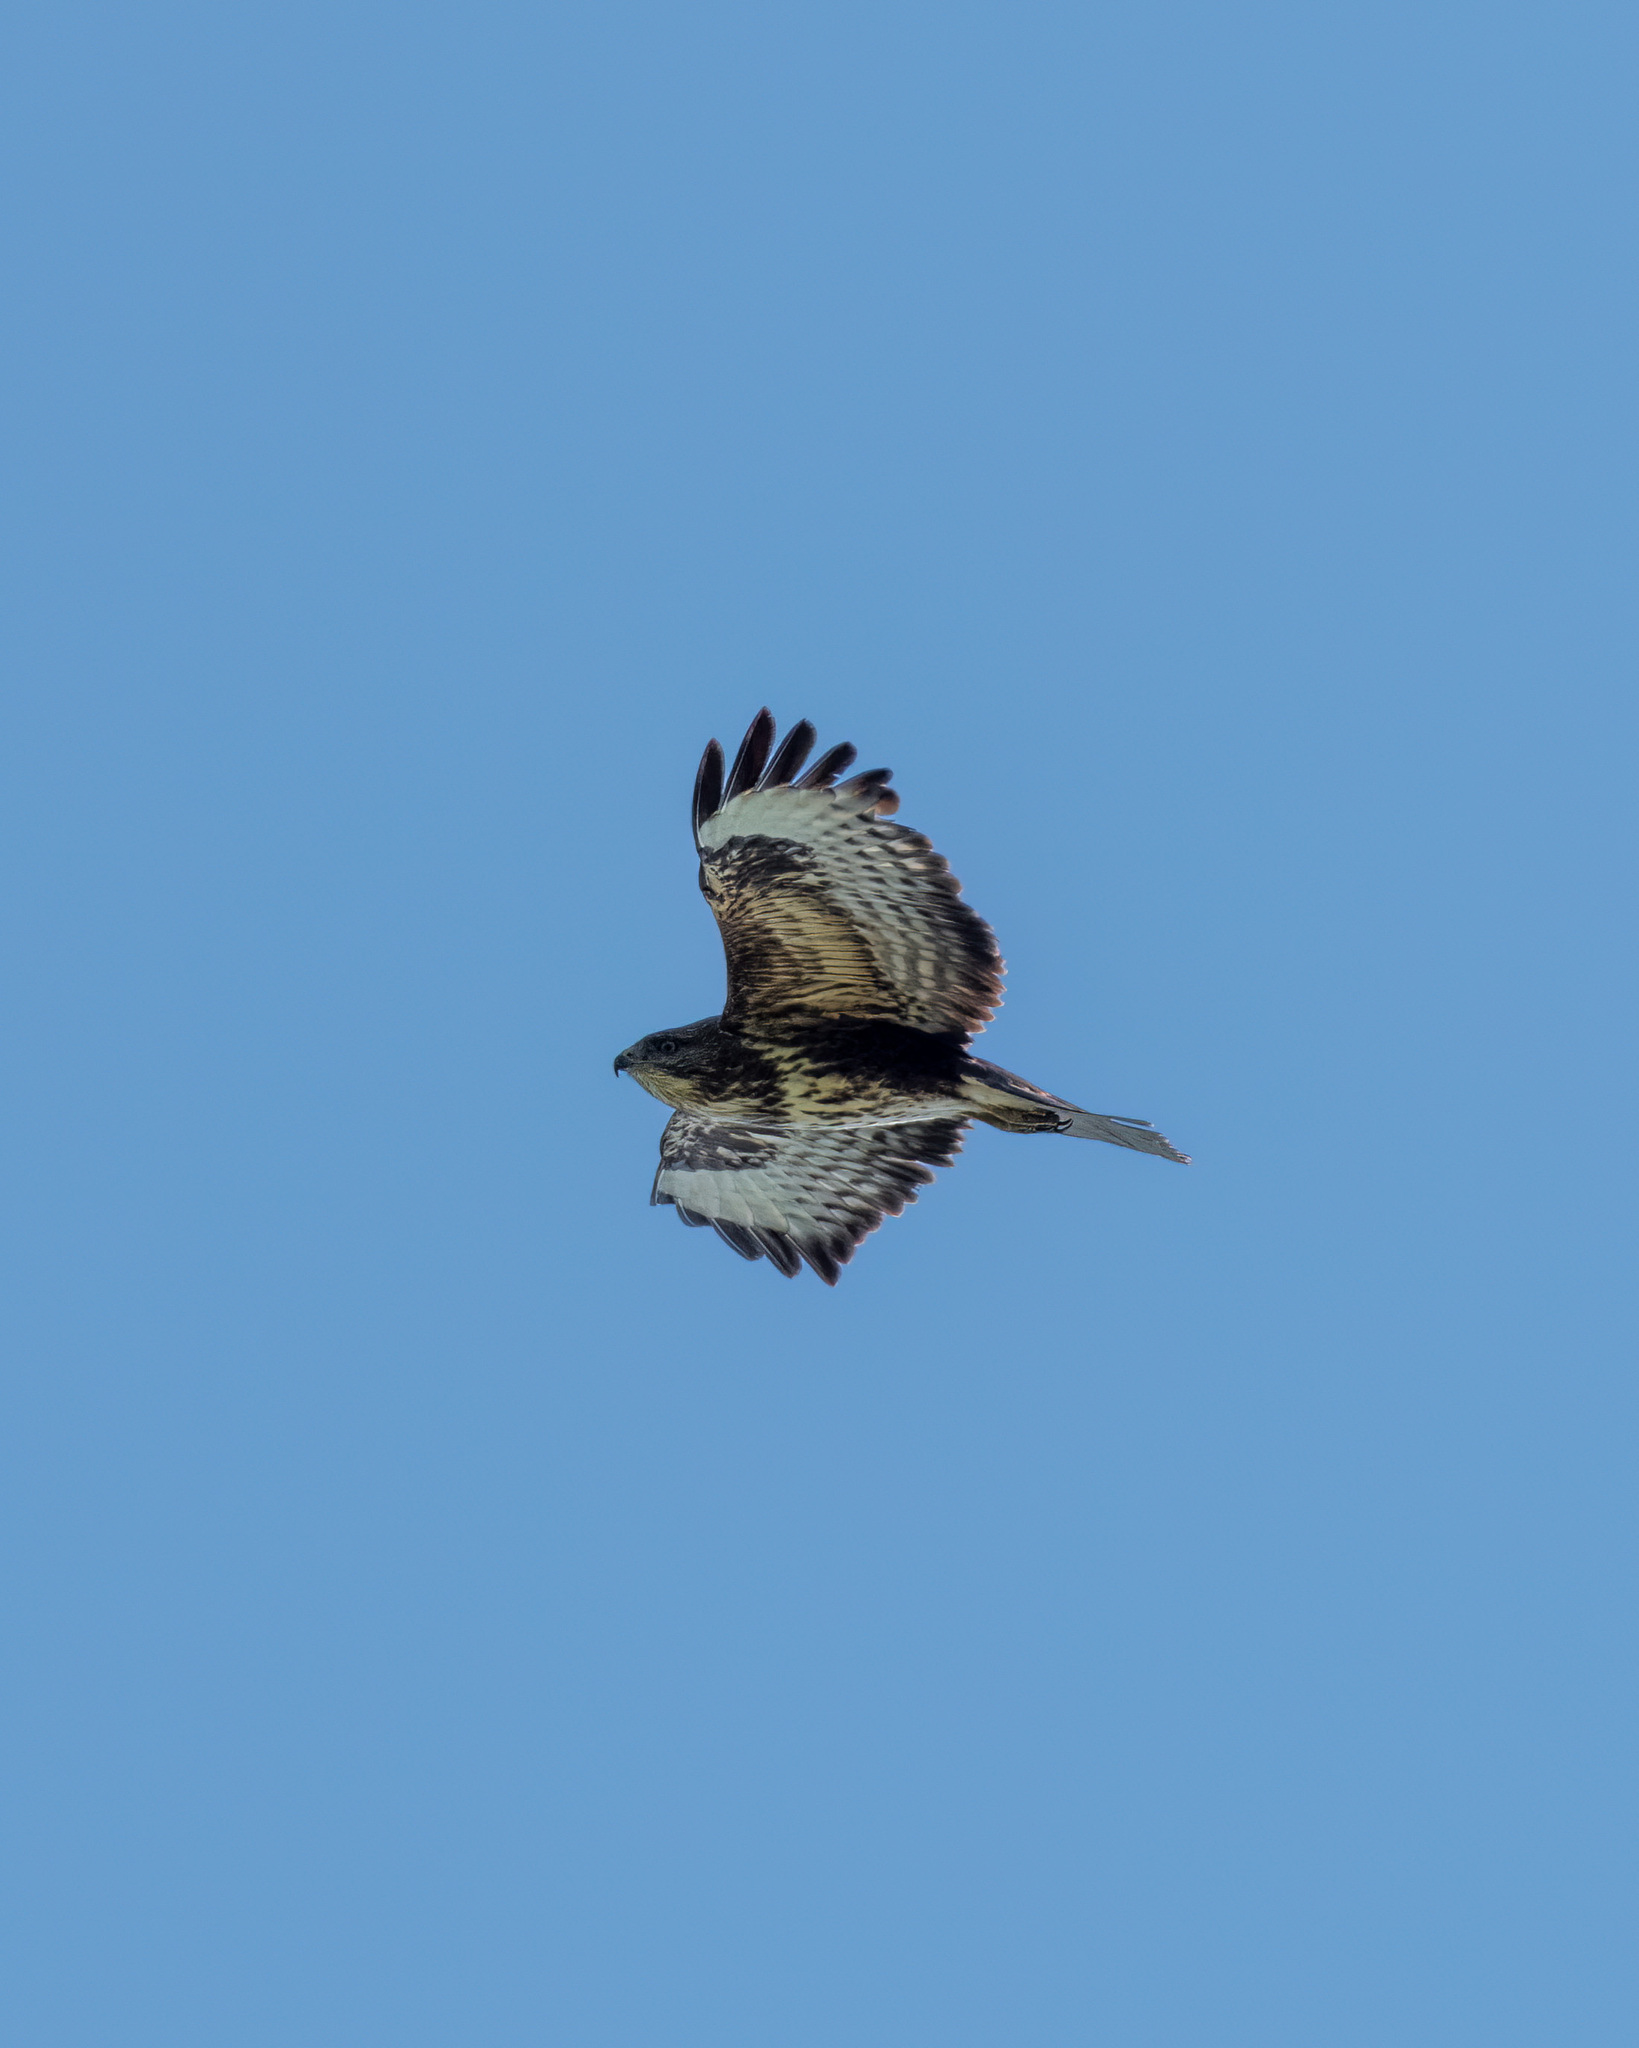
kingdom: Animalia
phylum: Chordata
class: Aves
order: Accipitriformes
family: Accipitridae
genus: Buteo
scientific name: Buteo buteo
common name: Common buzzard
